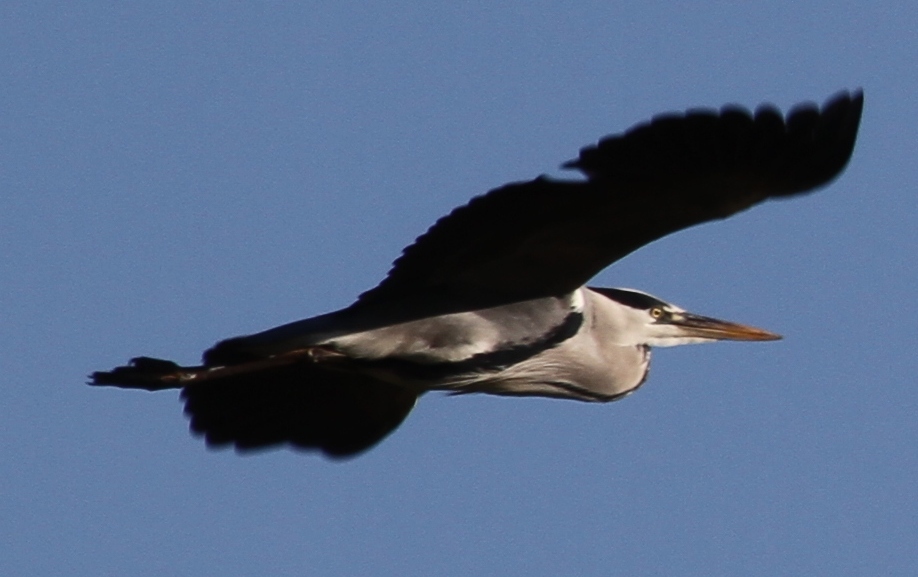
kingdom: Animalia
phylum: Chordata
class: Aves
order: Pelecaniformes
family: Ardeidae
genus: Ardea
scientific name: Ardea cinerea
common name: Grey heron
